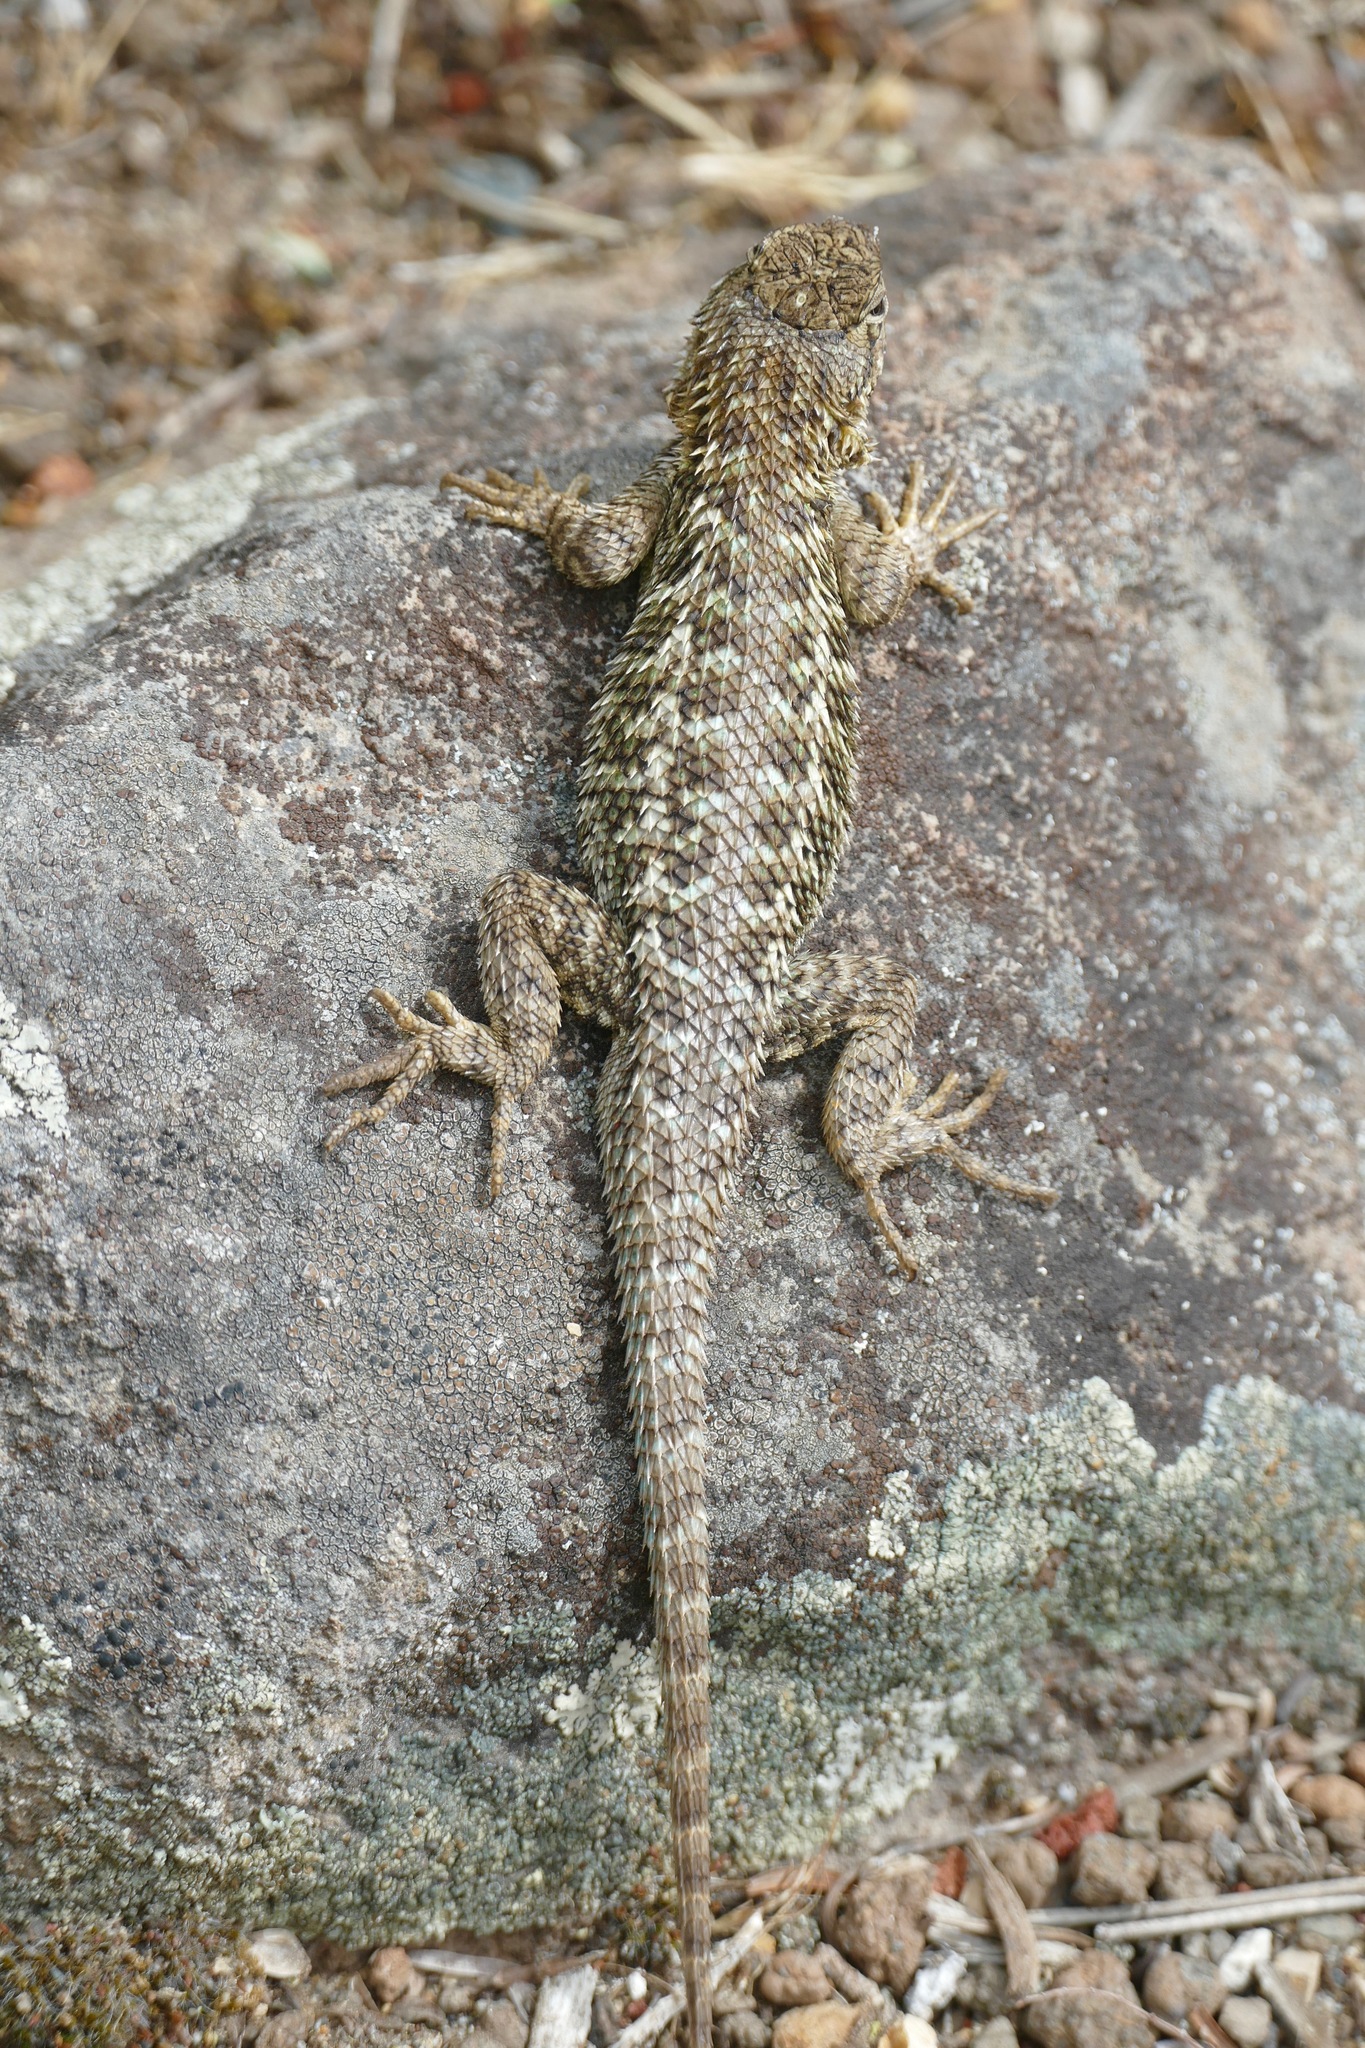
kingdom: Animalia
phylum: Chordata
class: Squamata
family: Phrynosomatidae
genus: Sceloporus
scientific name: Sceloporus occidentalis
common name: Western fence lizard
